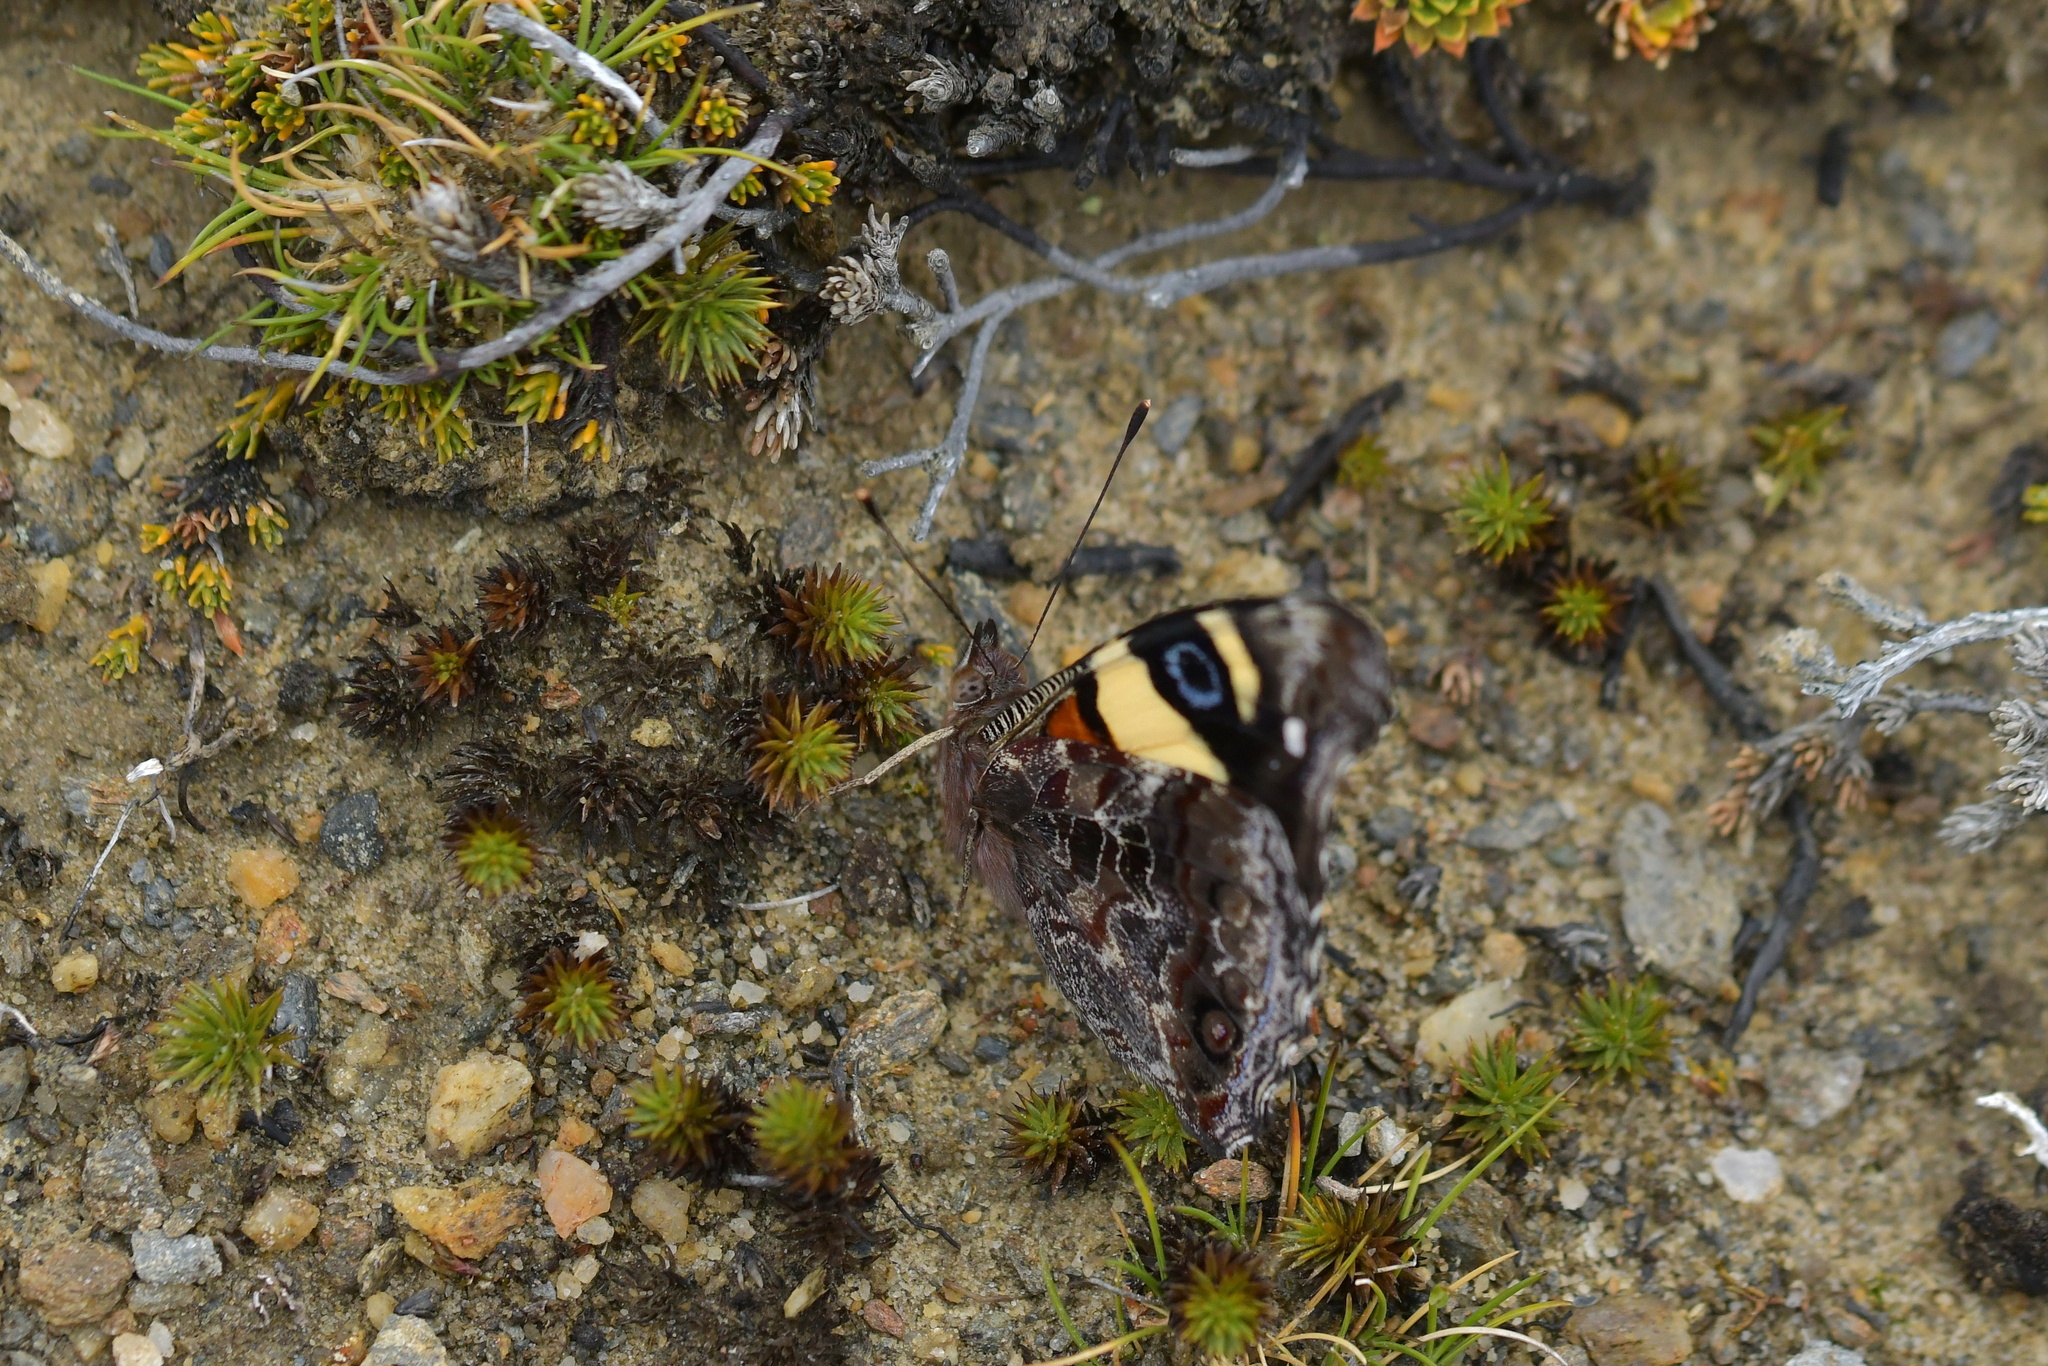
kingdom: Animalia
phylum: Arthropoda
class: Insecta
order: Lepidoptera
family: Nymphalidae
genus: Vanessa
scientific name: Vanessa itea
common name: Yellow admiral
